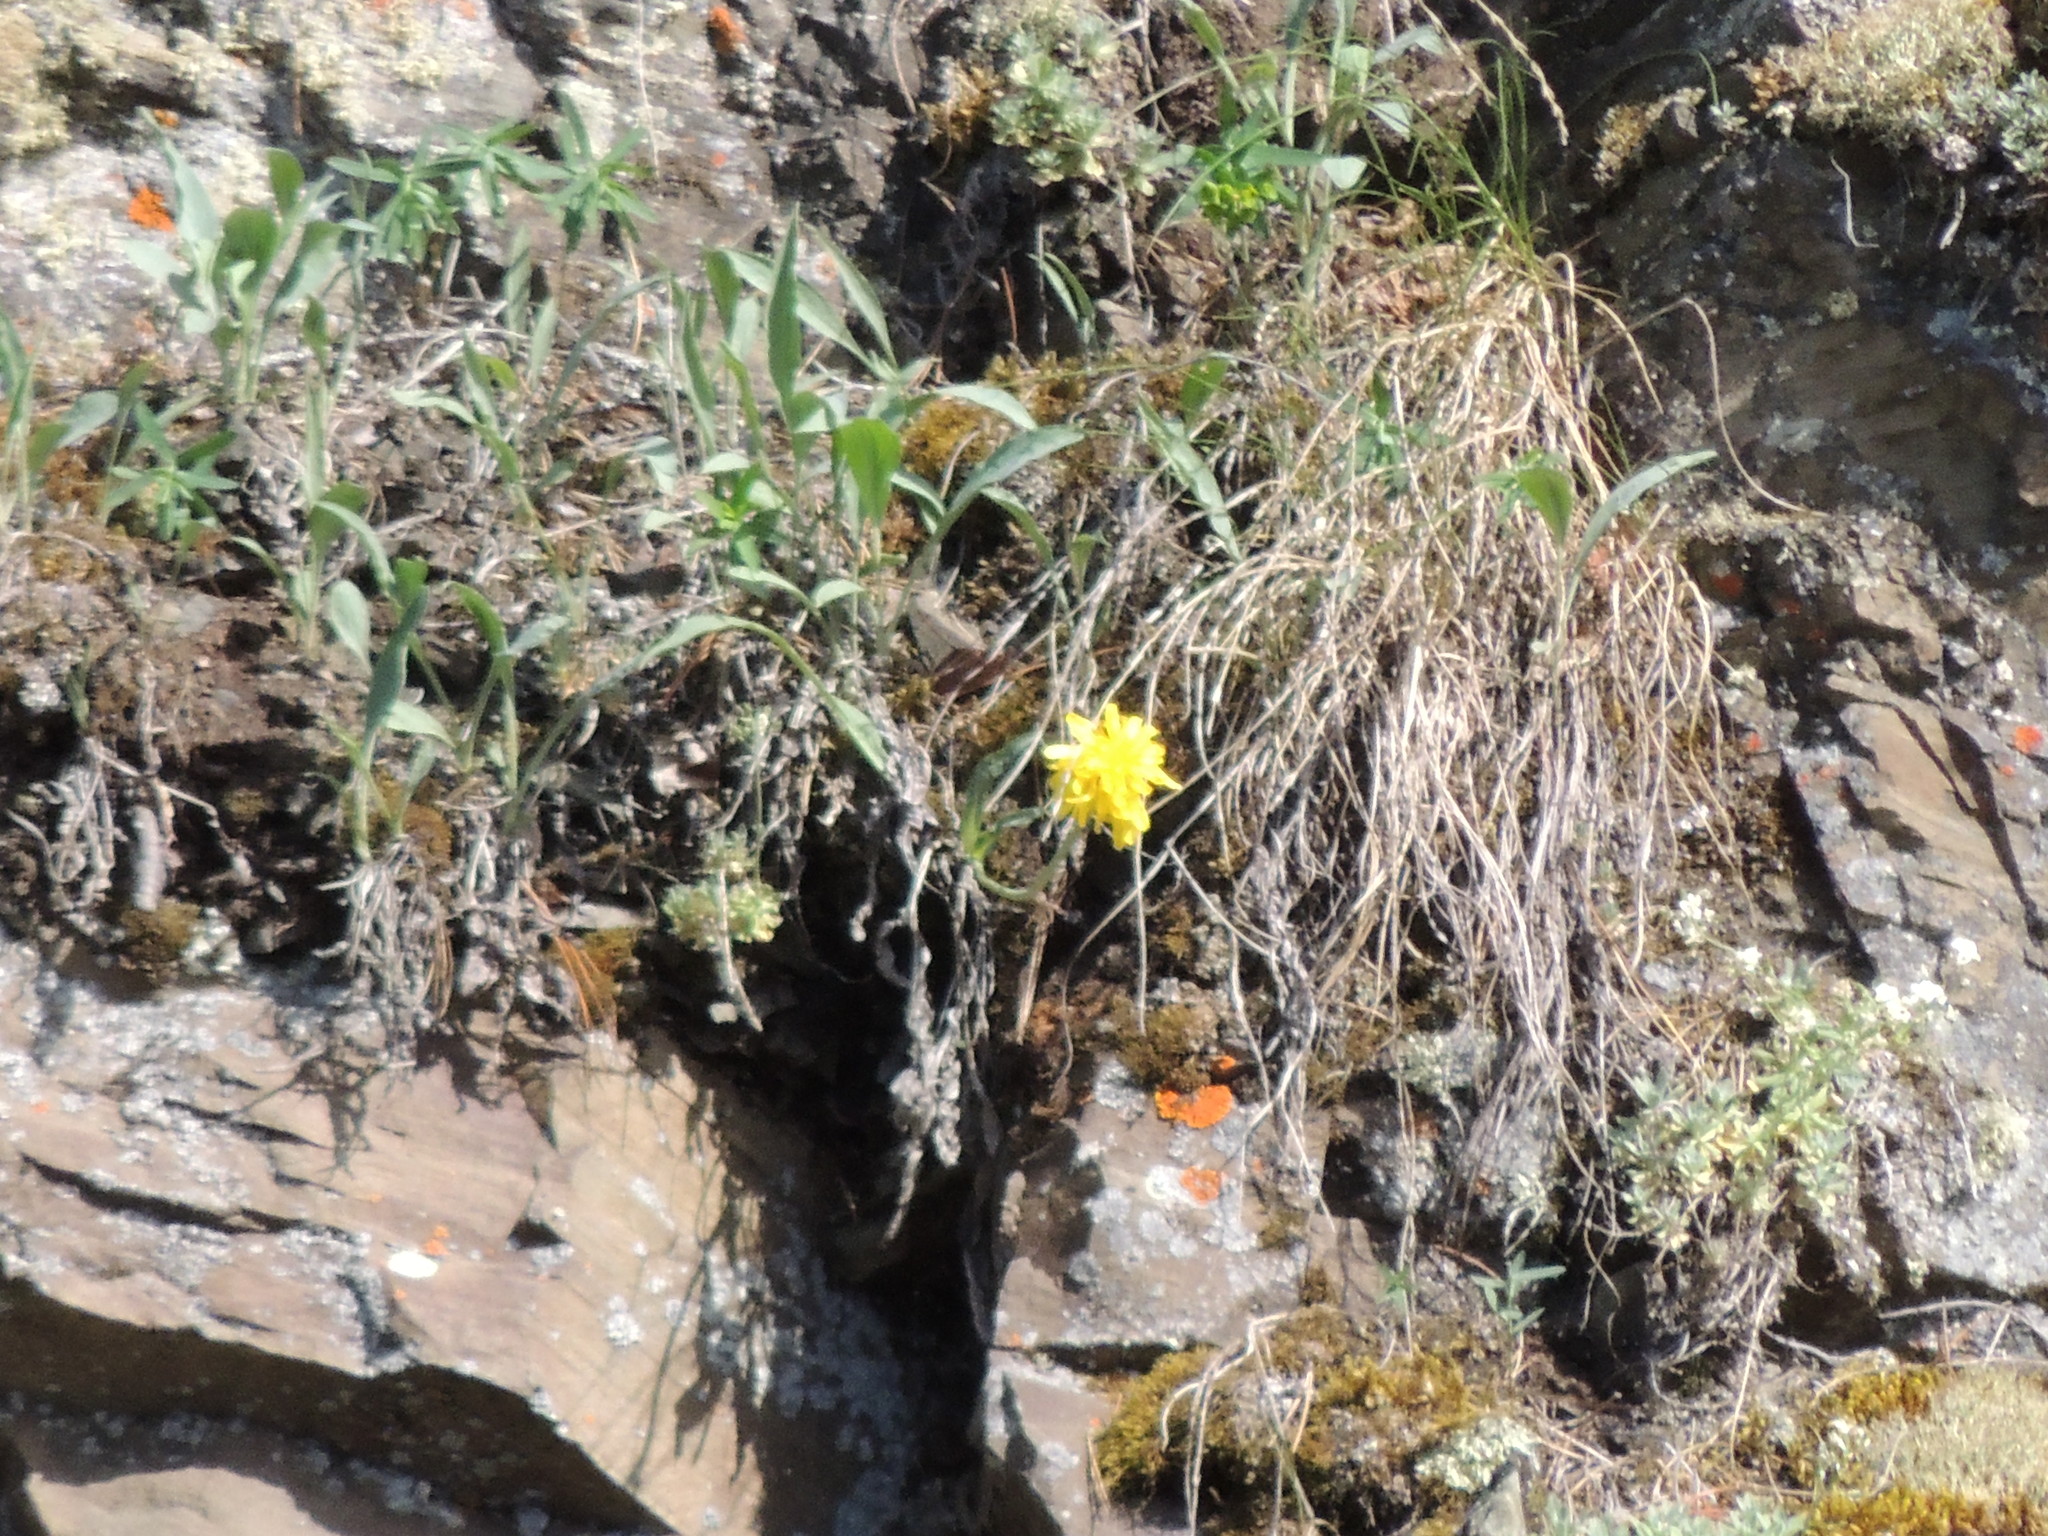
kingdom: Plantae
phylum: Tracheophyta
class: Magnoliopsida
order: Asterales
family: Asteraceae
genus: Scorzonera
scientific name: Scorzonera glabra
